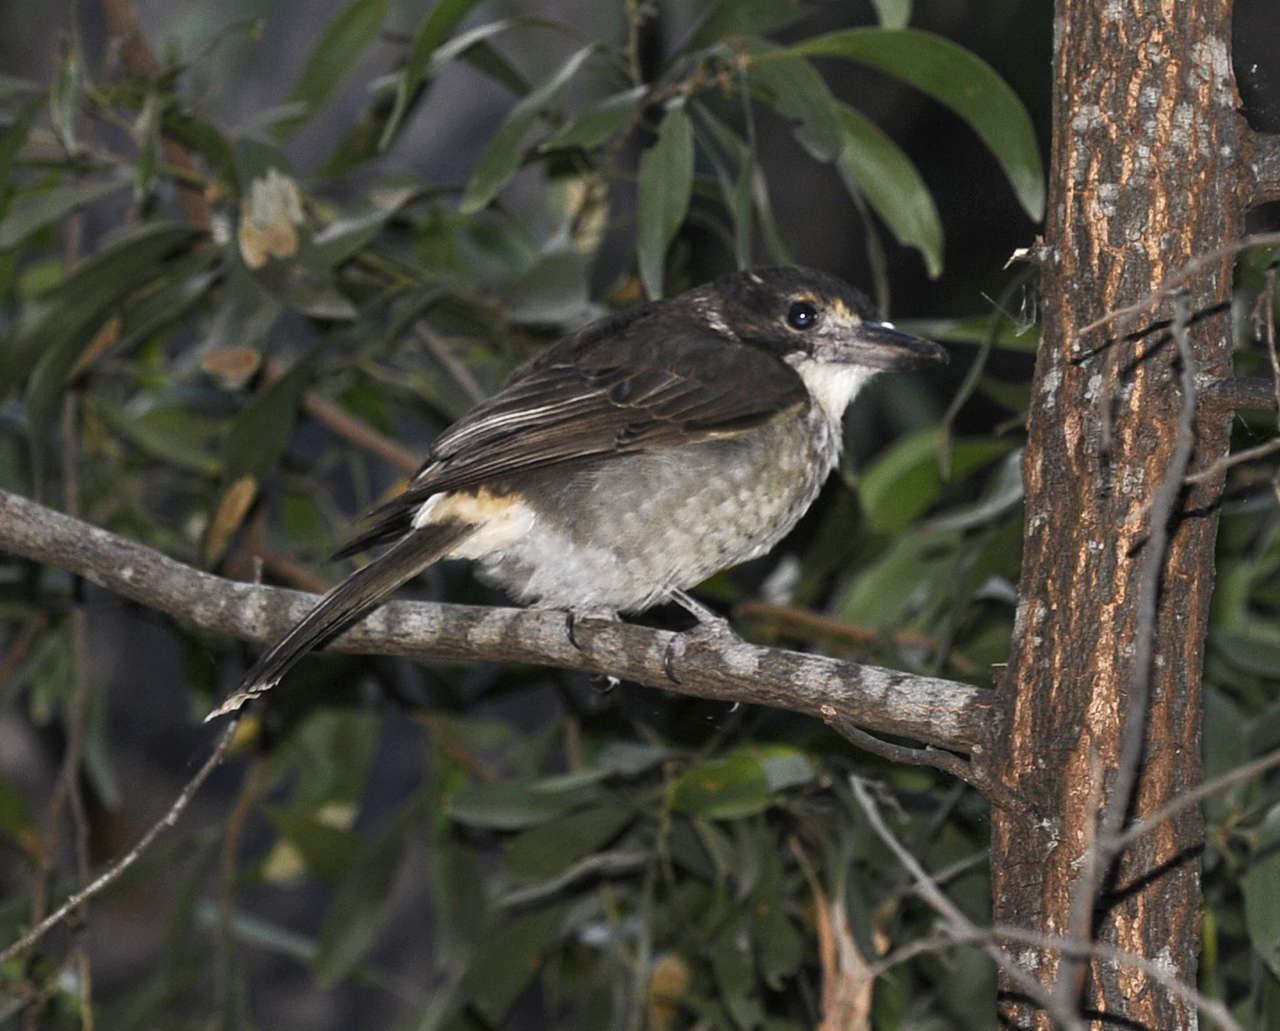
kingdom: Animalia
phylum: Chordata
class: Aves
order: Passeriformes
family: Cracticidae
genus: Cracticus
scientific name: Cracticus torquatus
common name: Grey butcherbird
